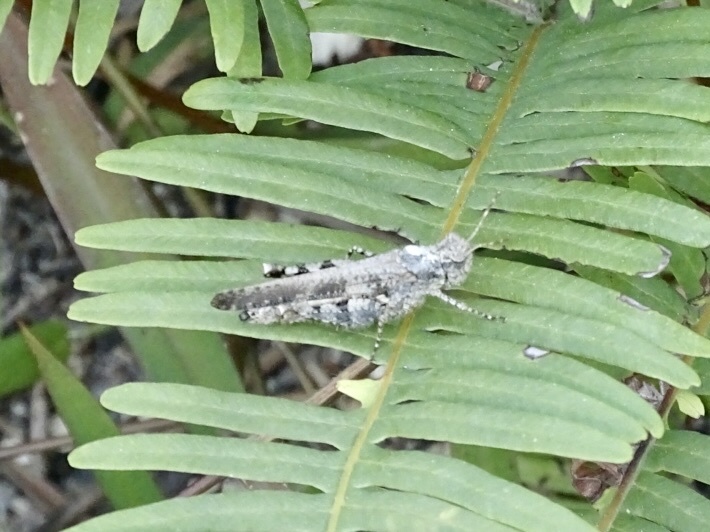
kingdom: Animalia
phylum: Arthropoda
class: Insecta
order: Orthoptera
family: Acrididae
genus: Trilophidia
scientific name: Trilophidia annulata
